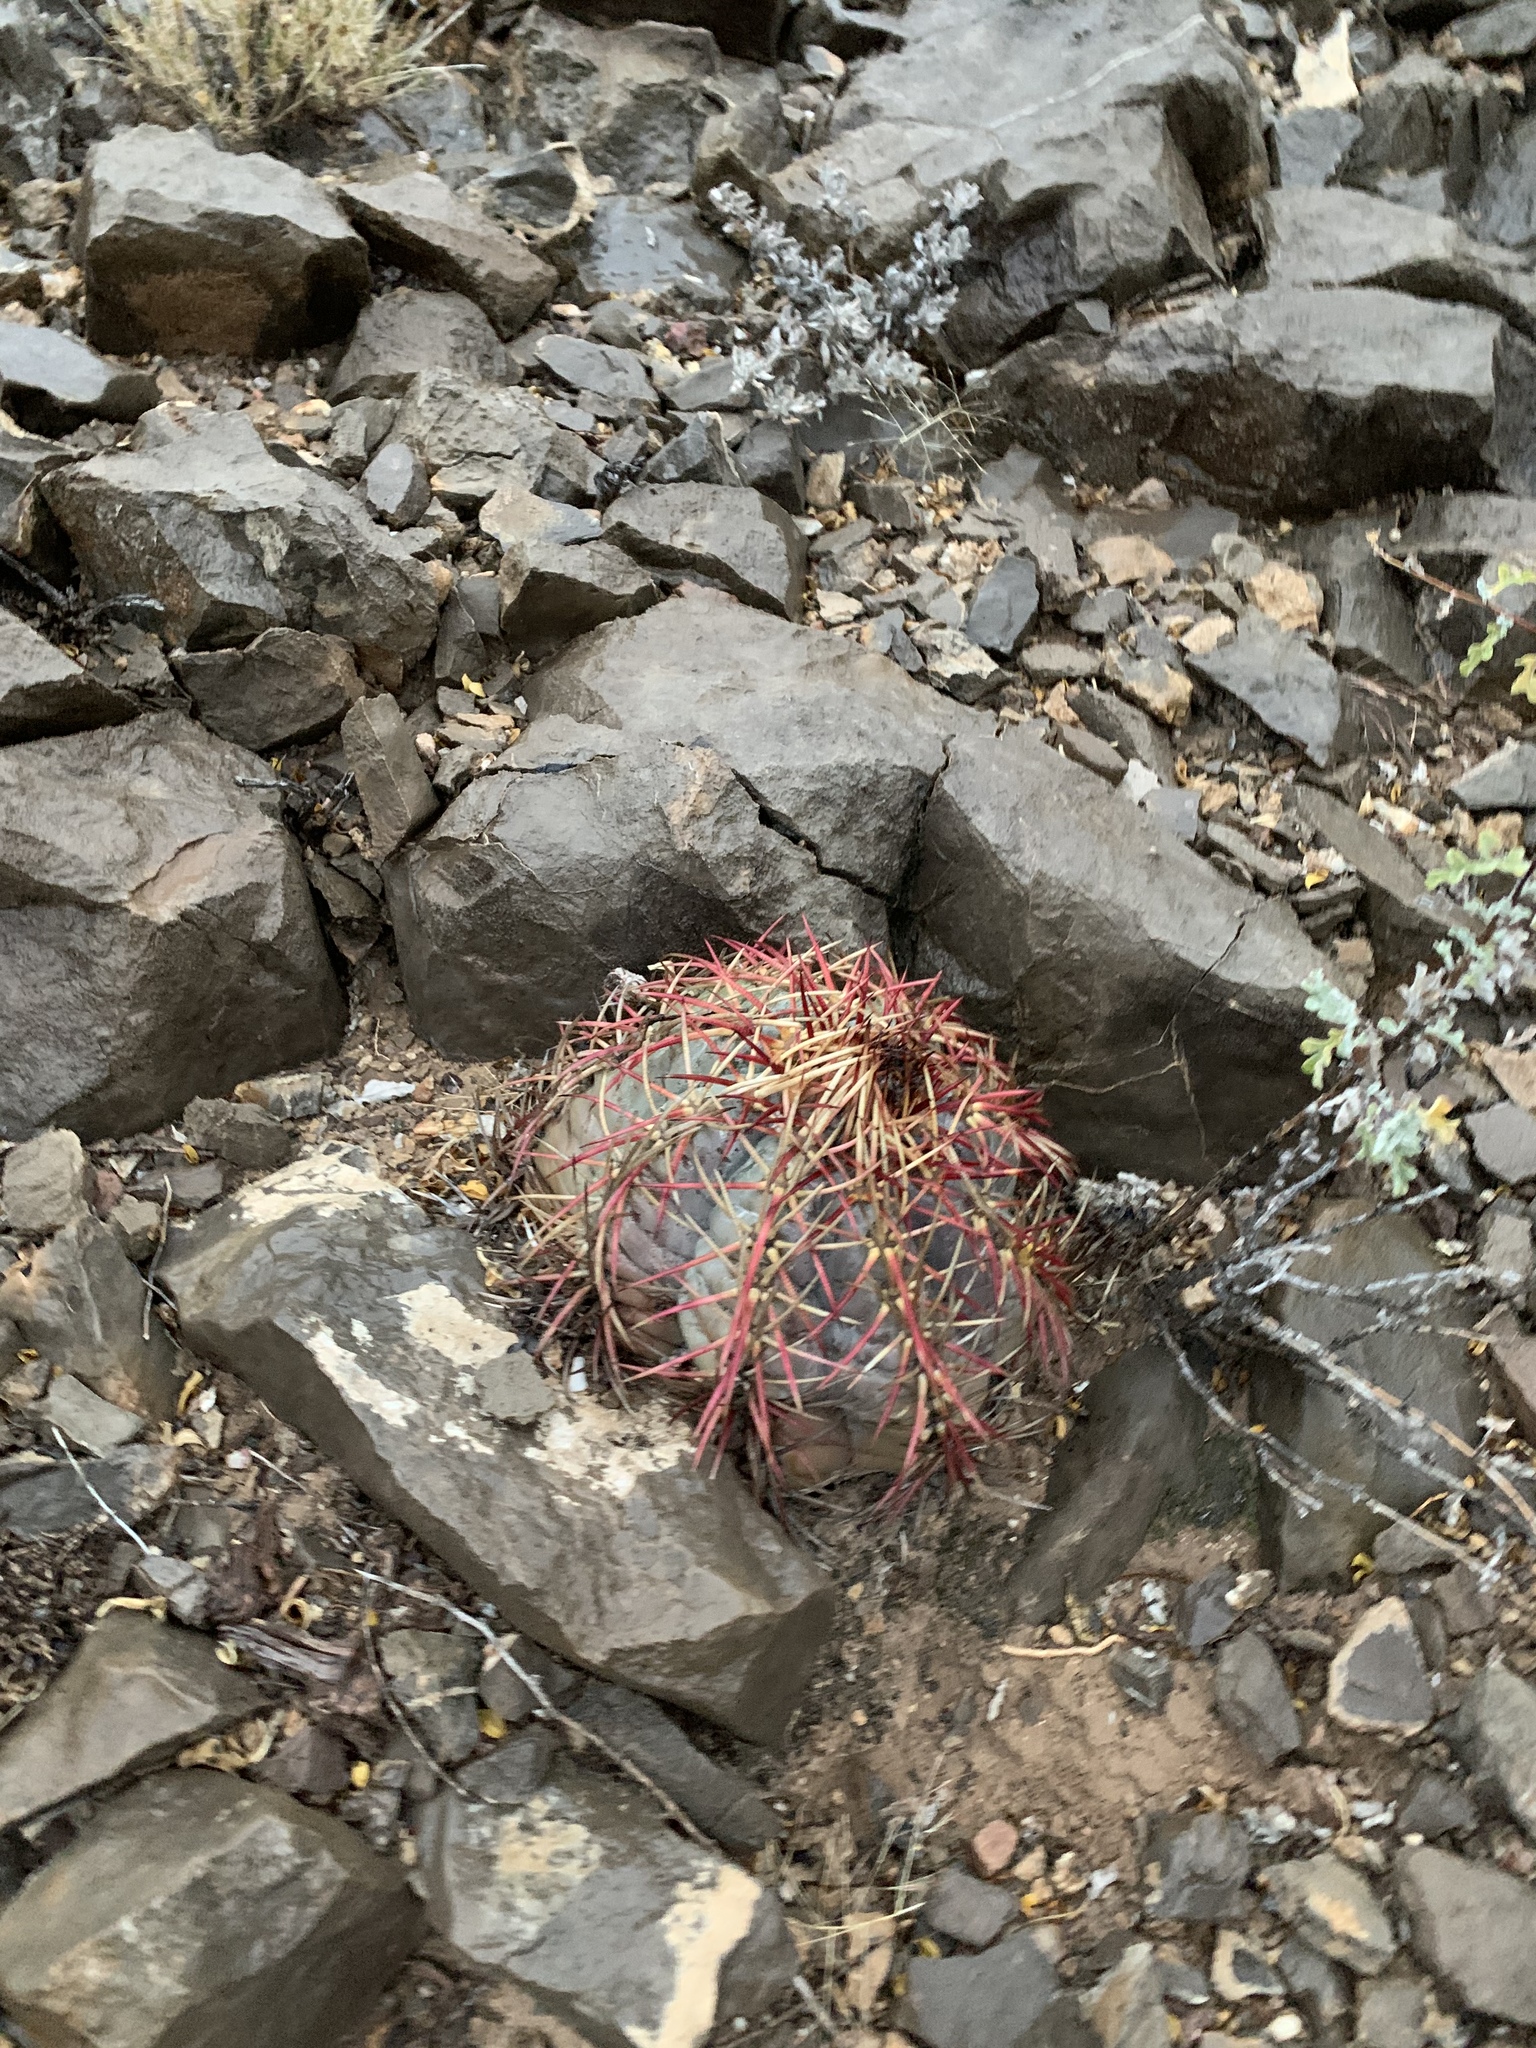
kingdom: Plantae
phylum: Tracheophyta
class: Magnoliopsida
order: Caryophyllales
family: Cactaceae
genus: Echinocactus
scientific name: Echinocactus horizonthalonius
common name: Devilshead
